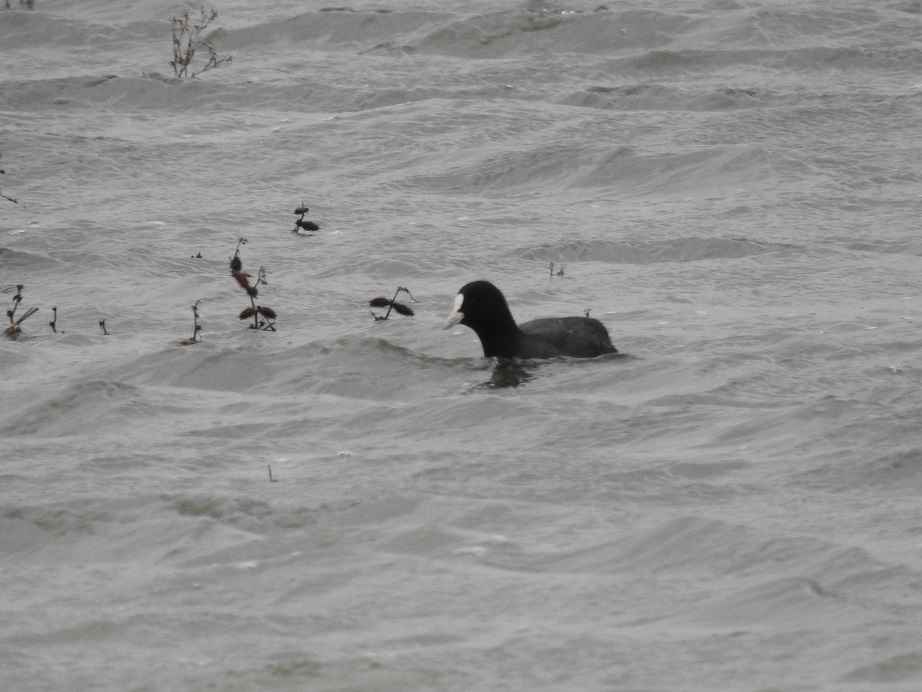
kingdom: Animalia
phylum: Chordata
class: Aves
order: Gruiformes
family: Rallidae
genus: Fulica
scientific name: Fulica atra
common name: Eurasian coot
